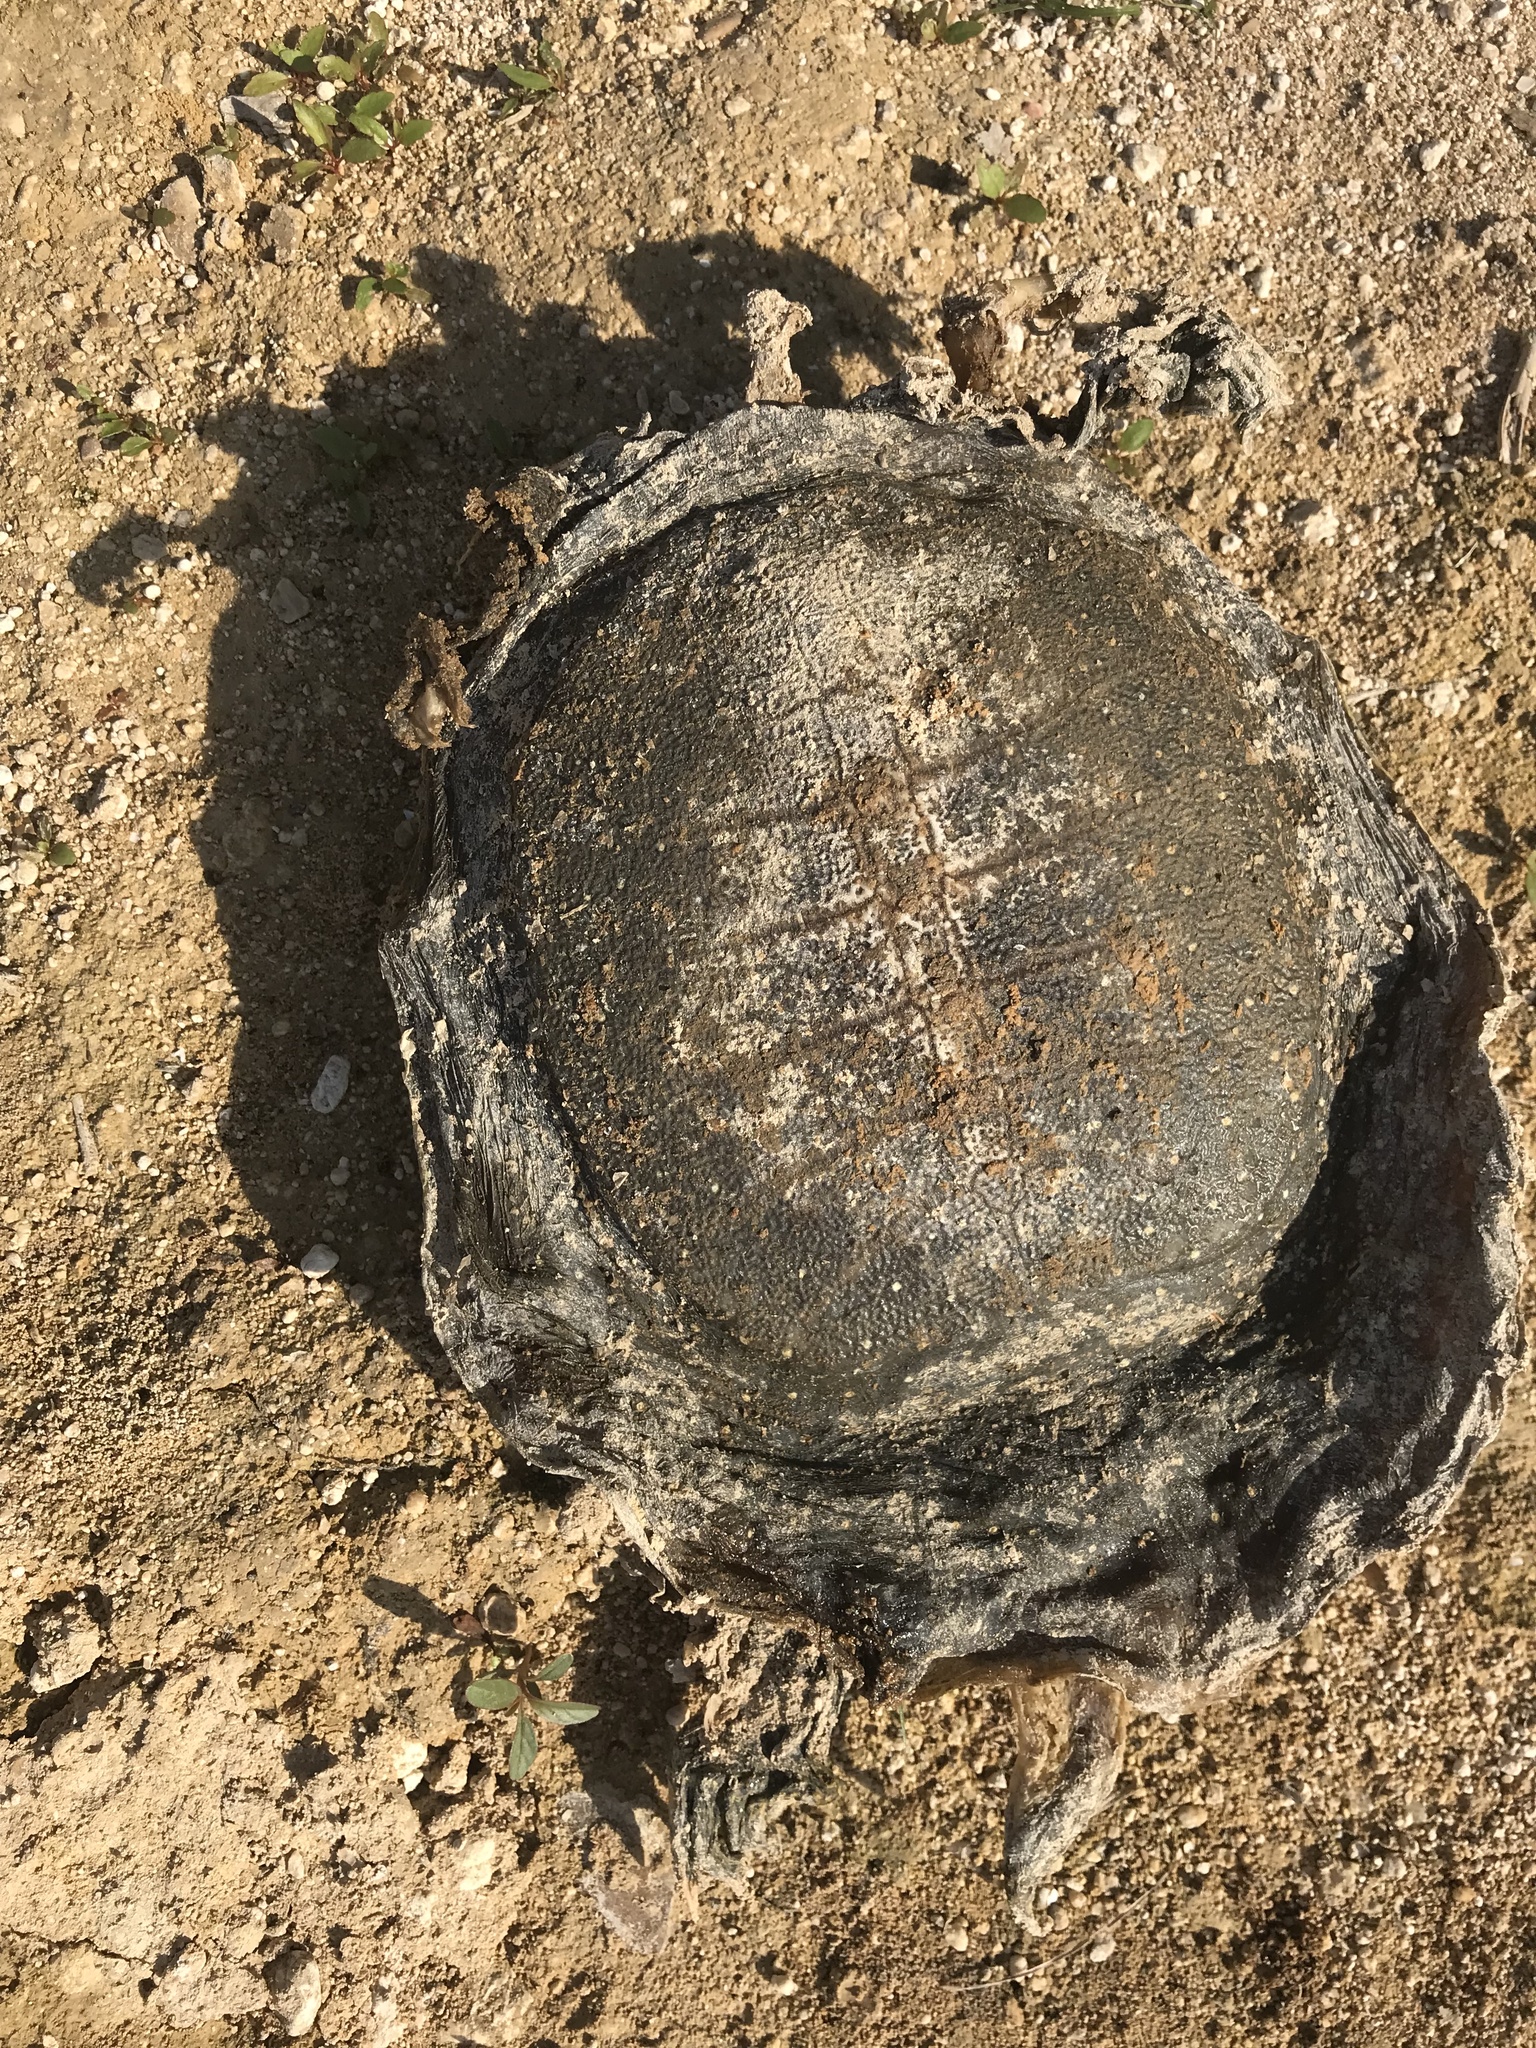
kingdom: Animalia
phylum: Chordata
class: Testudines
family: Trionychidae
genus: Apalone
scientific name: Apalone spinifera
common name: Spiny softshell turtle
